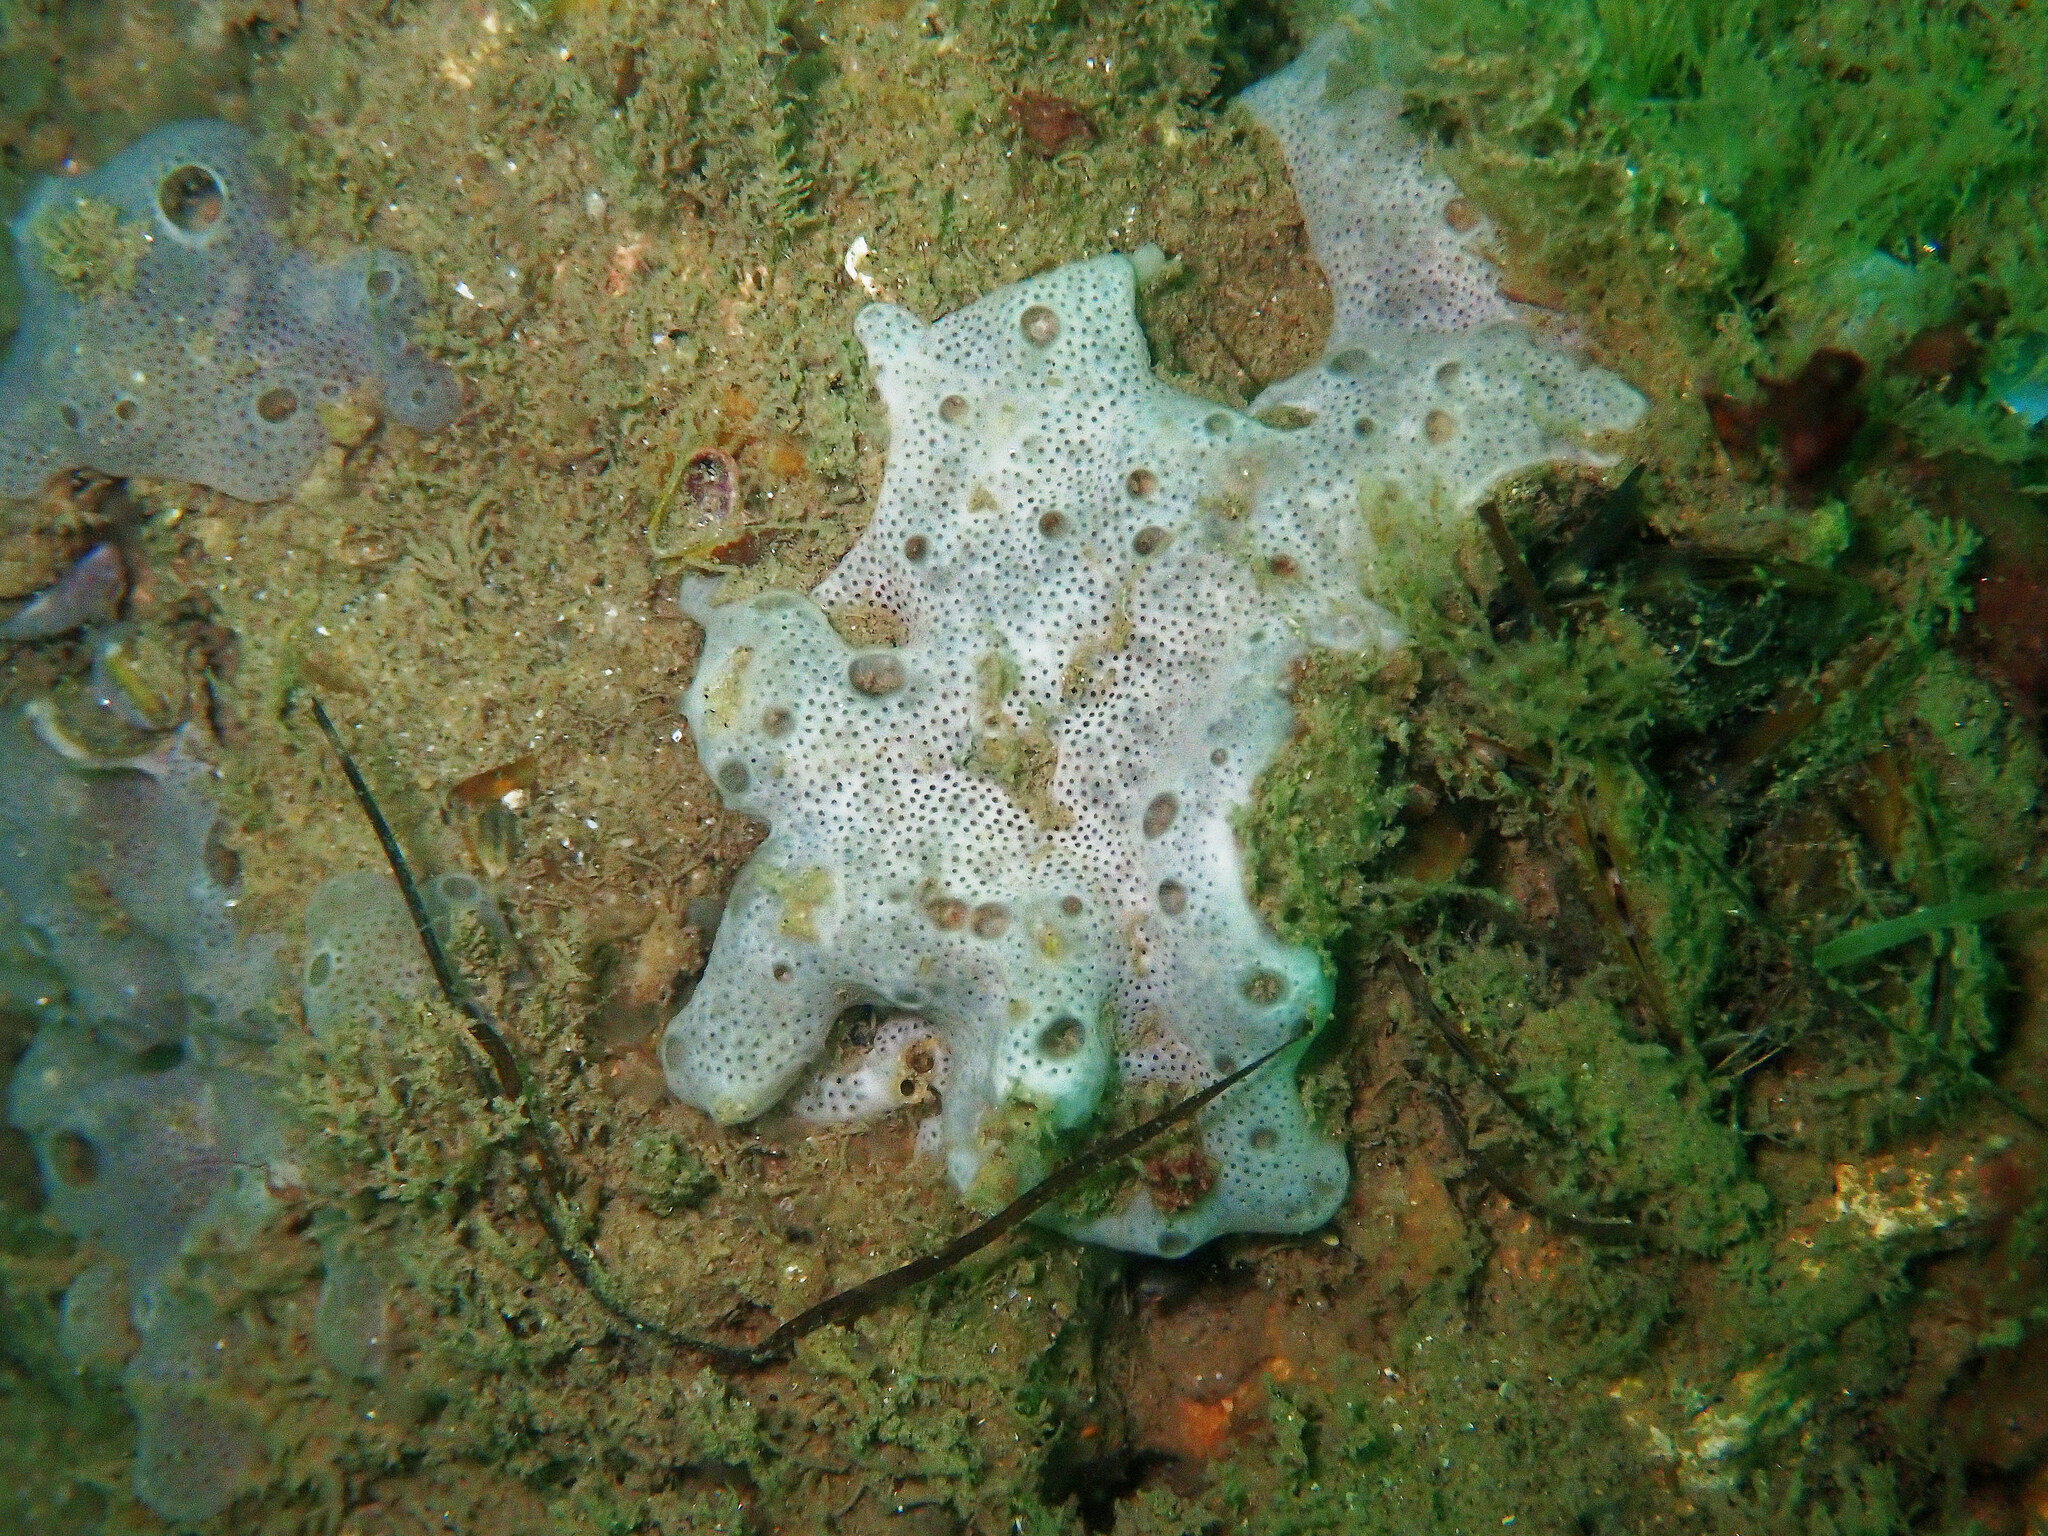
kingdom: Animalia
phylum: Chordata
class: Ascidiacea
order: Aplousobranchia
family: Didemnidae
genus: Lissoclinum
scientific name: Lissoclinum perforatum
